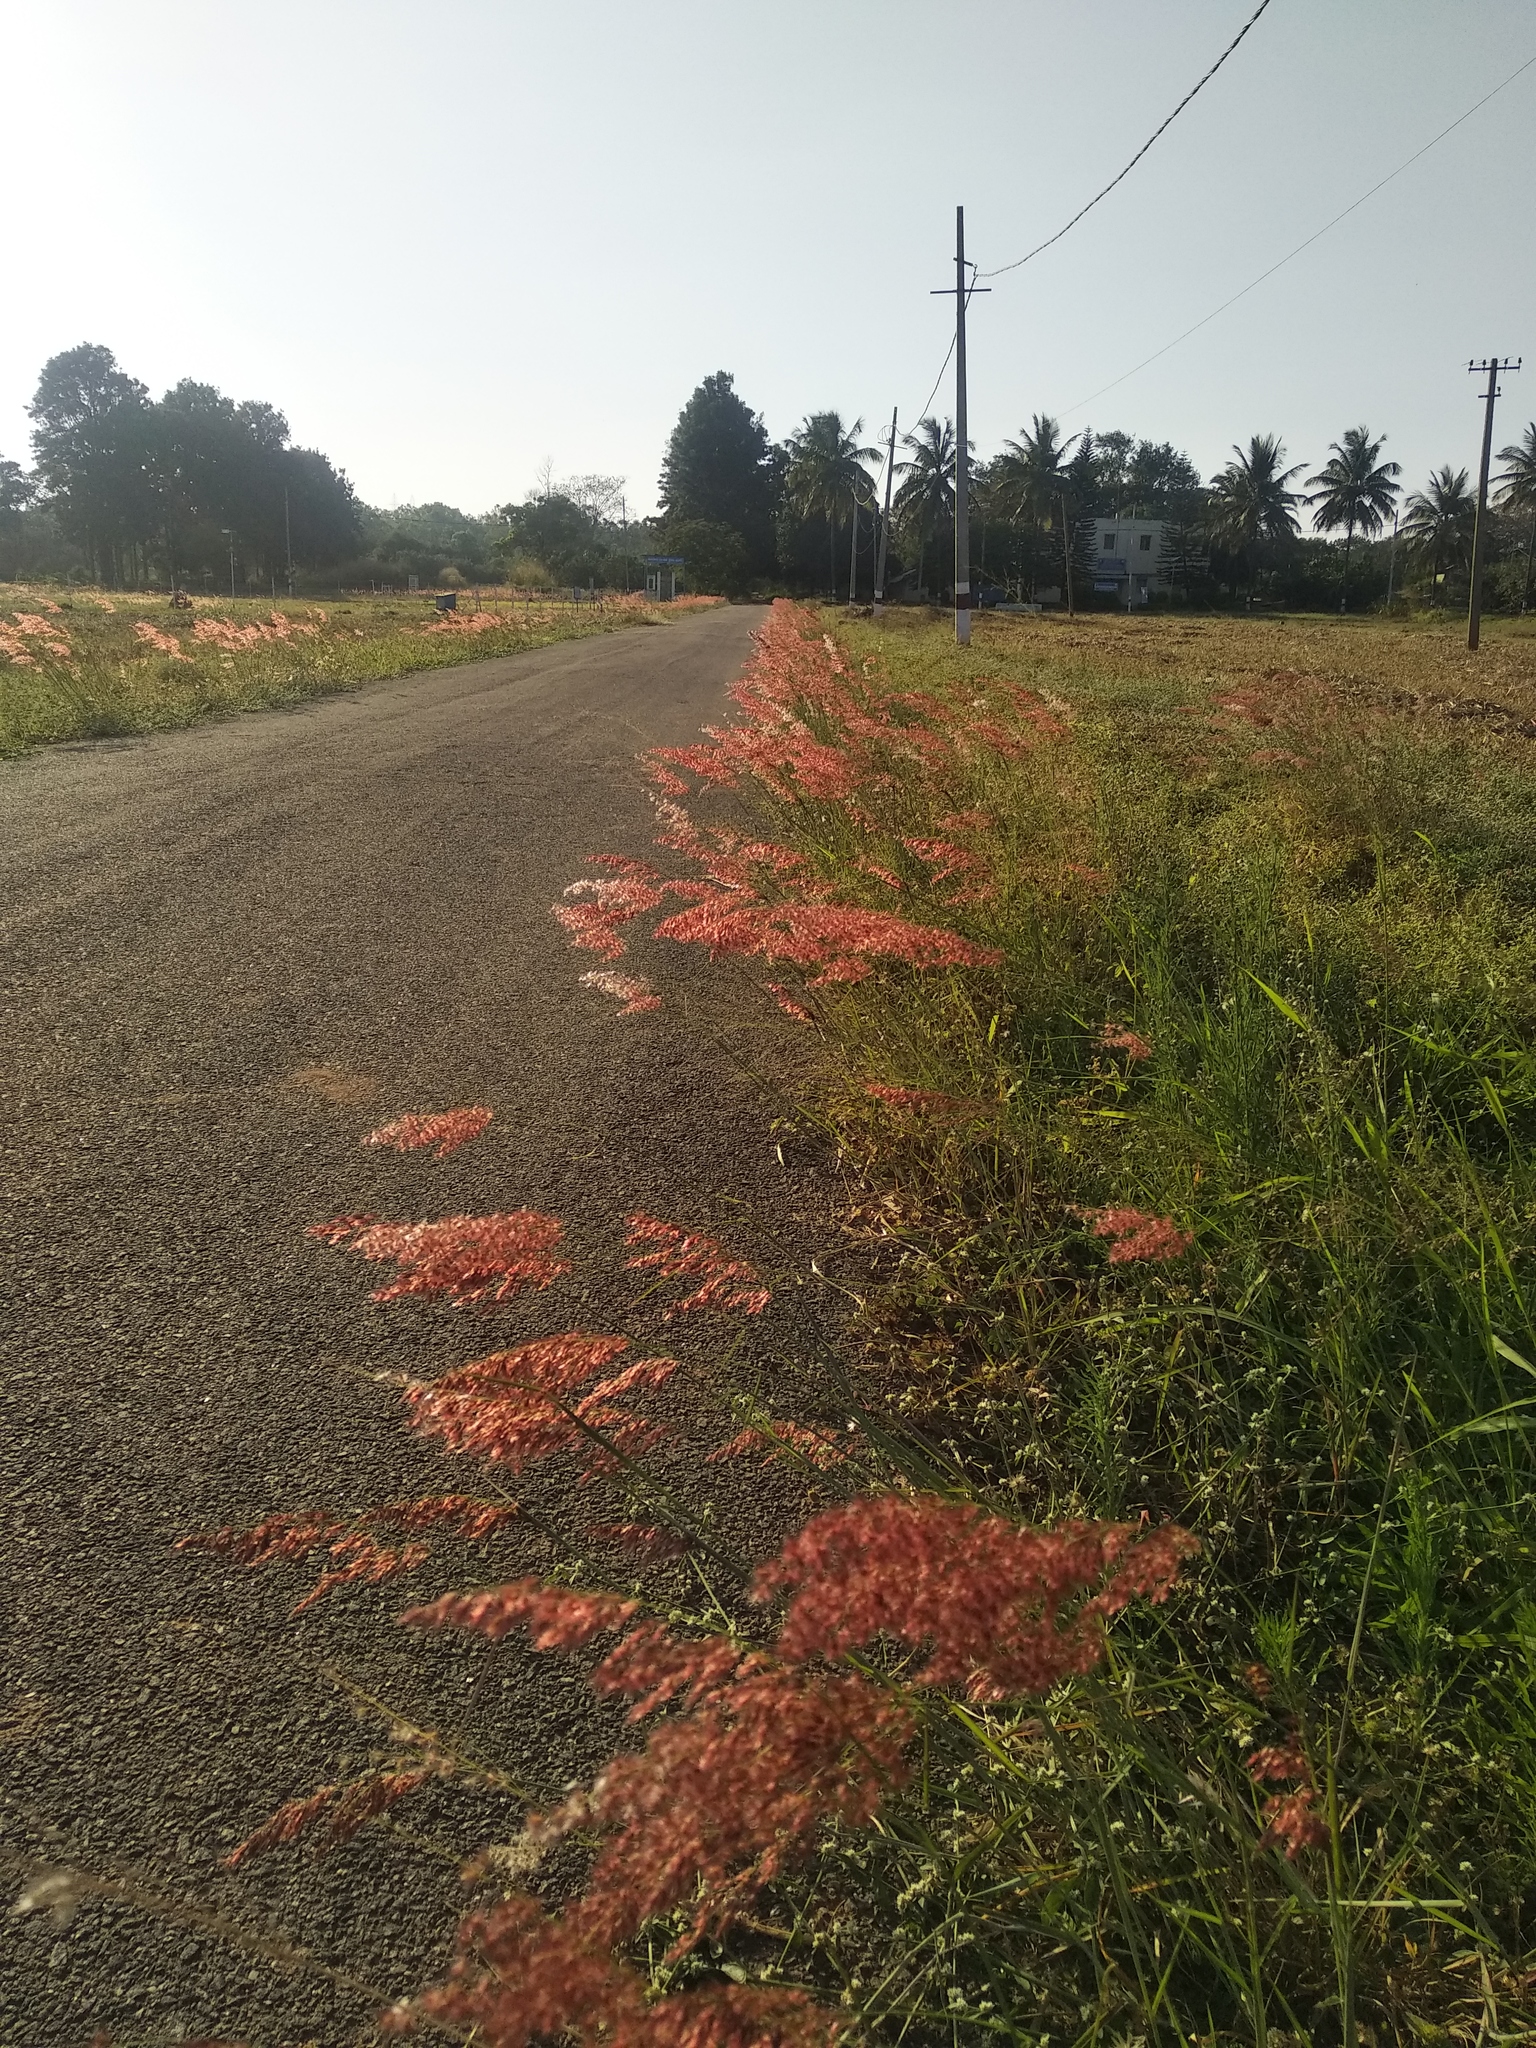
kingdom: Plantae
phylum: Tracheophyta
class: Liliopsida
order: Poales
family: Poaceae
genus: Melinis
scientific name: Melinis repens
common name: Rose natal grass
